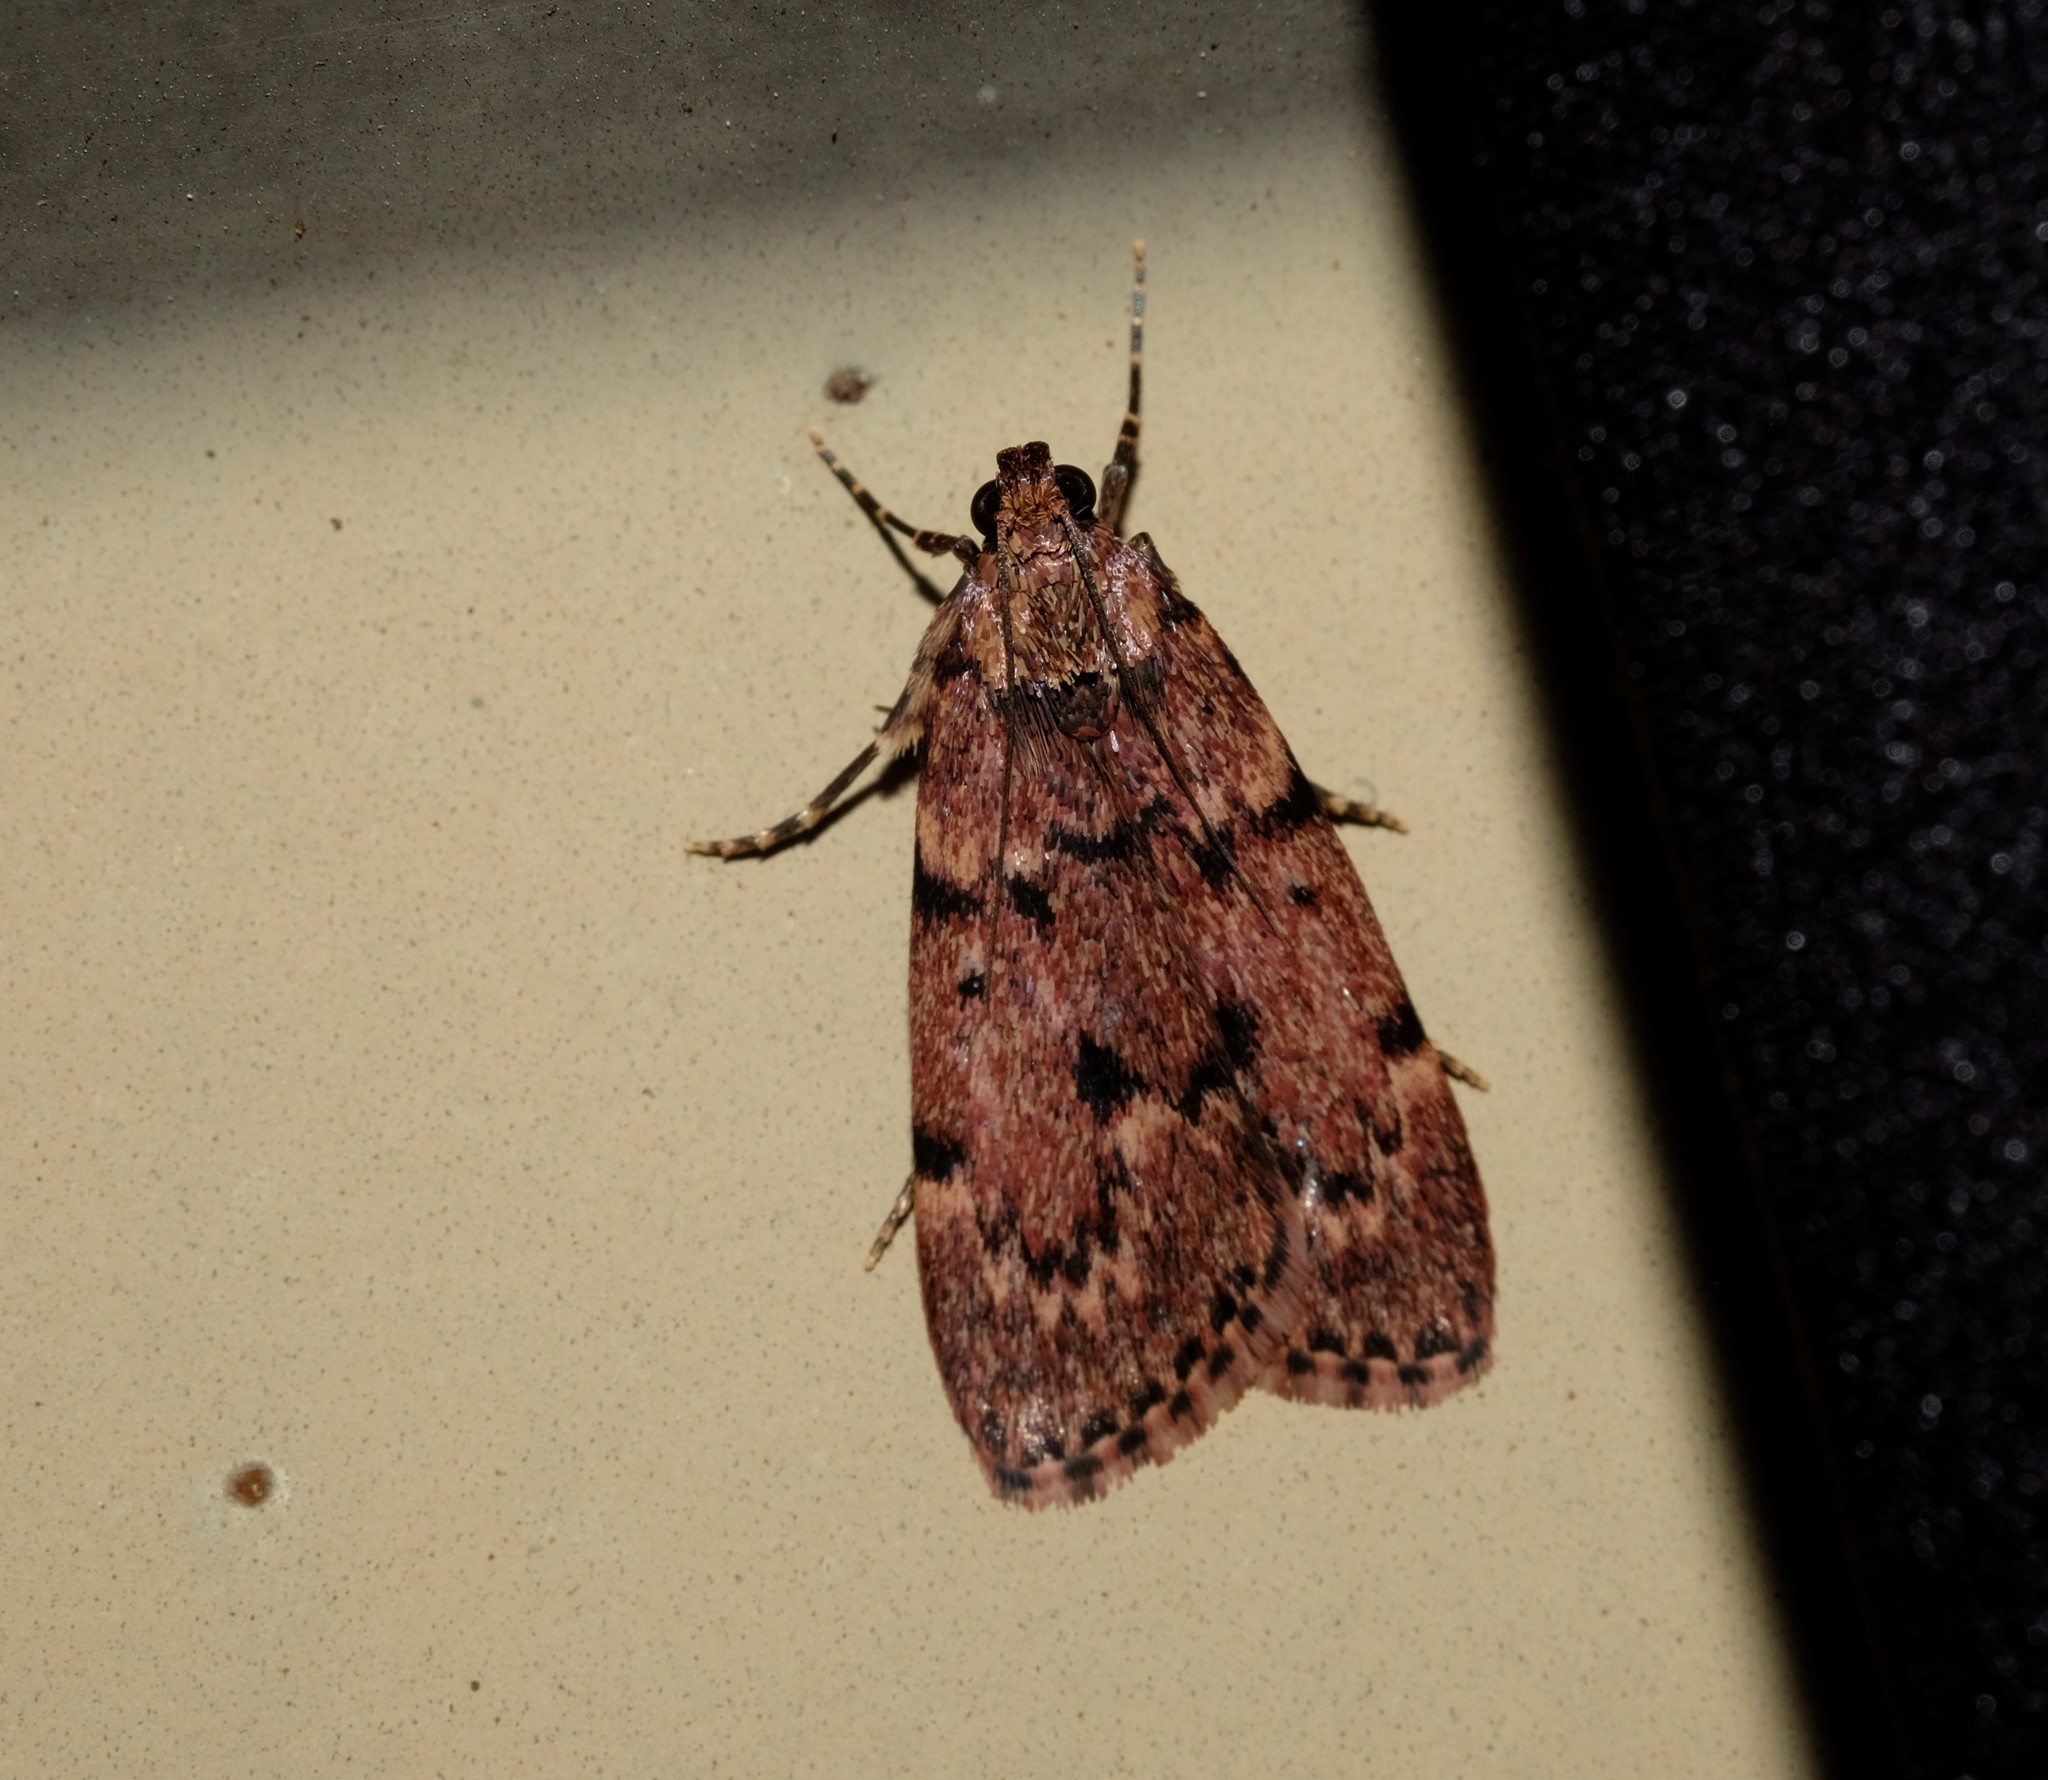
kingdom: Animalia
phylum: Arthropoda
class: Insecta
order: Lepidoptera
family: Pyralidae
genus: Mimaglossa
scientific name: Mimaglossa nauplialis
